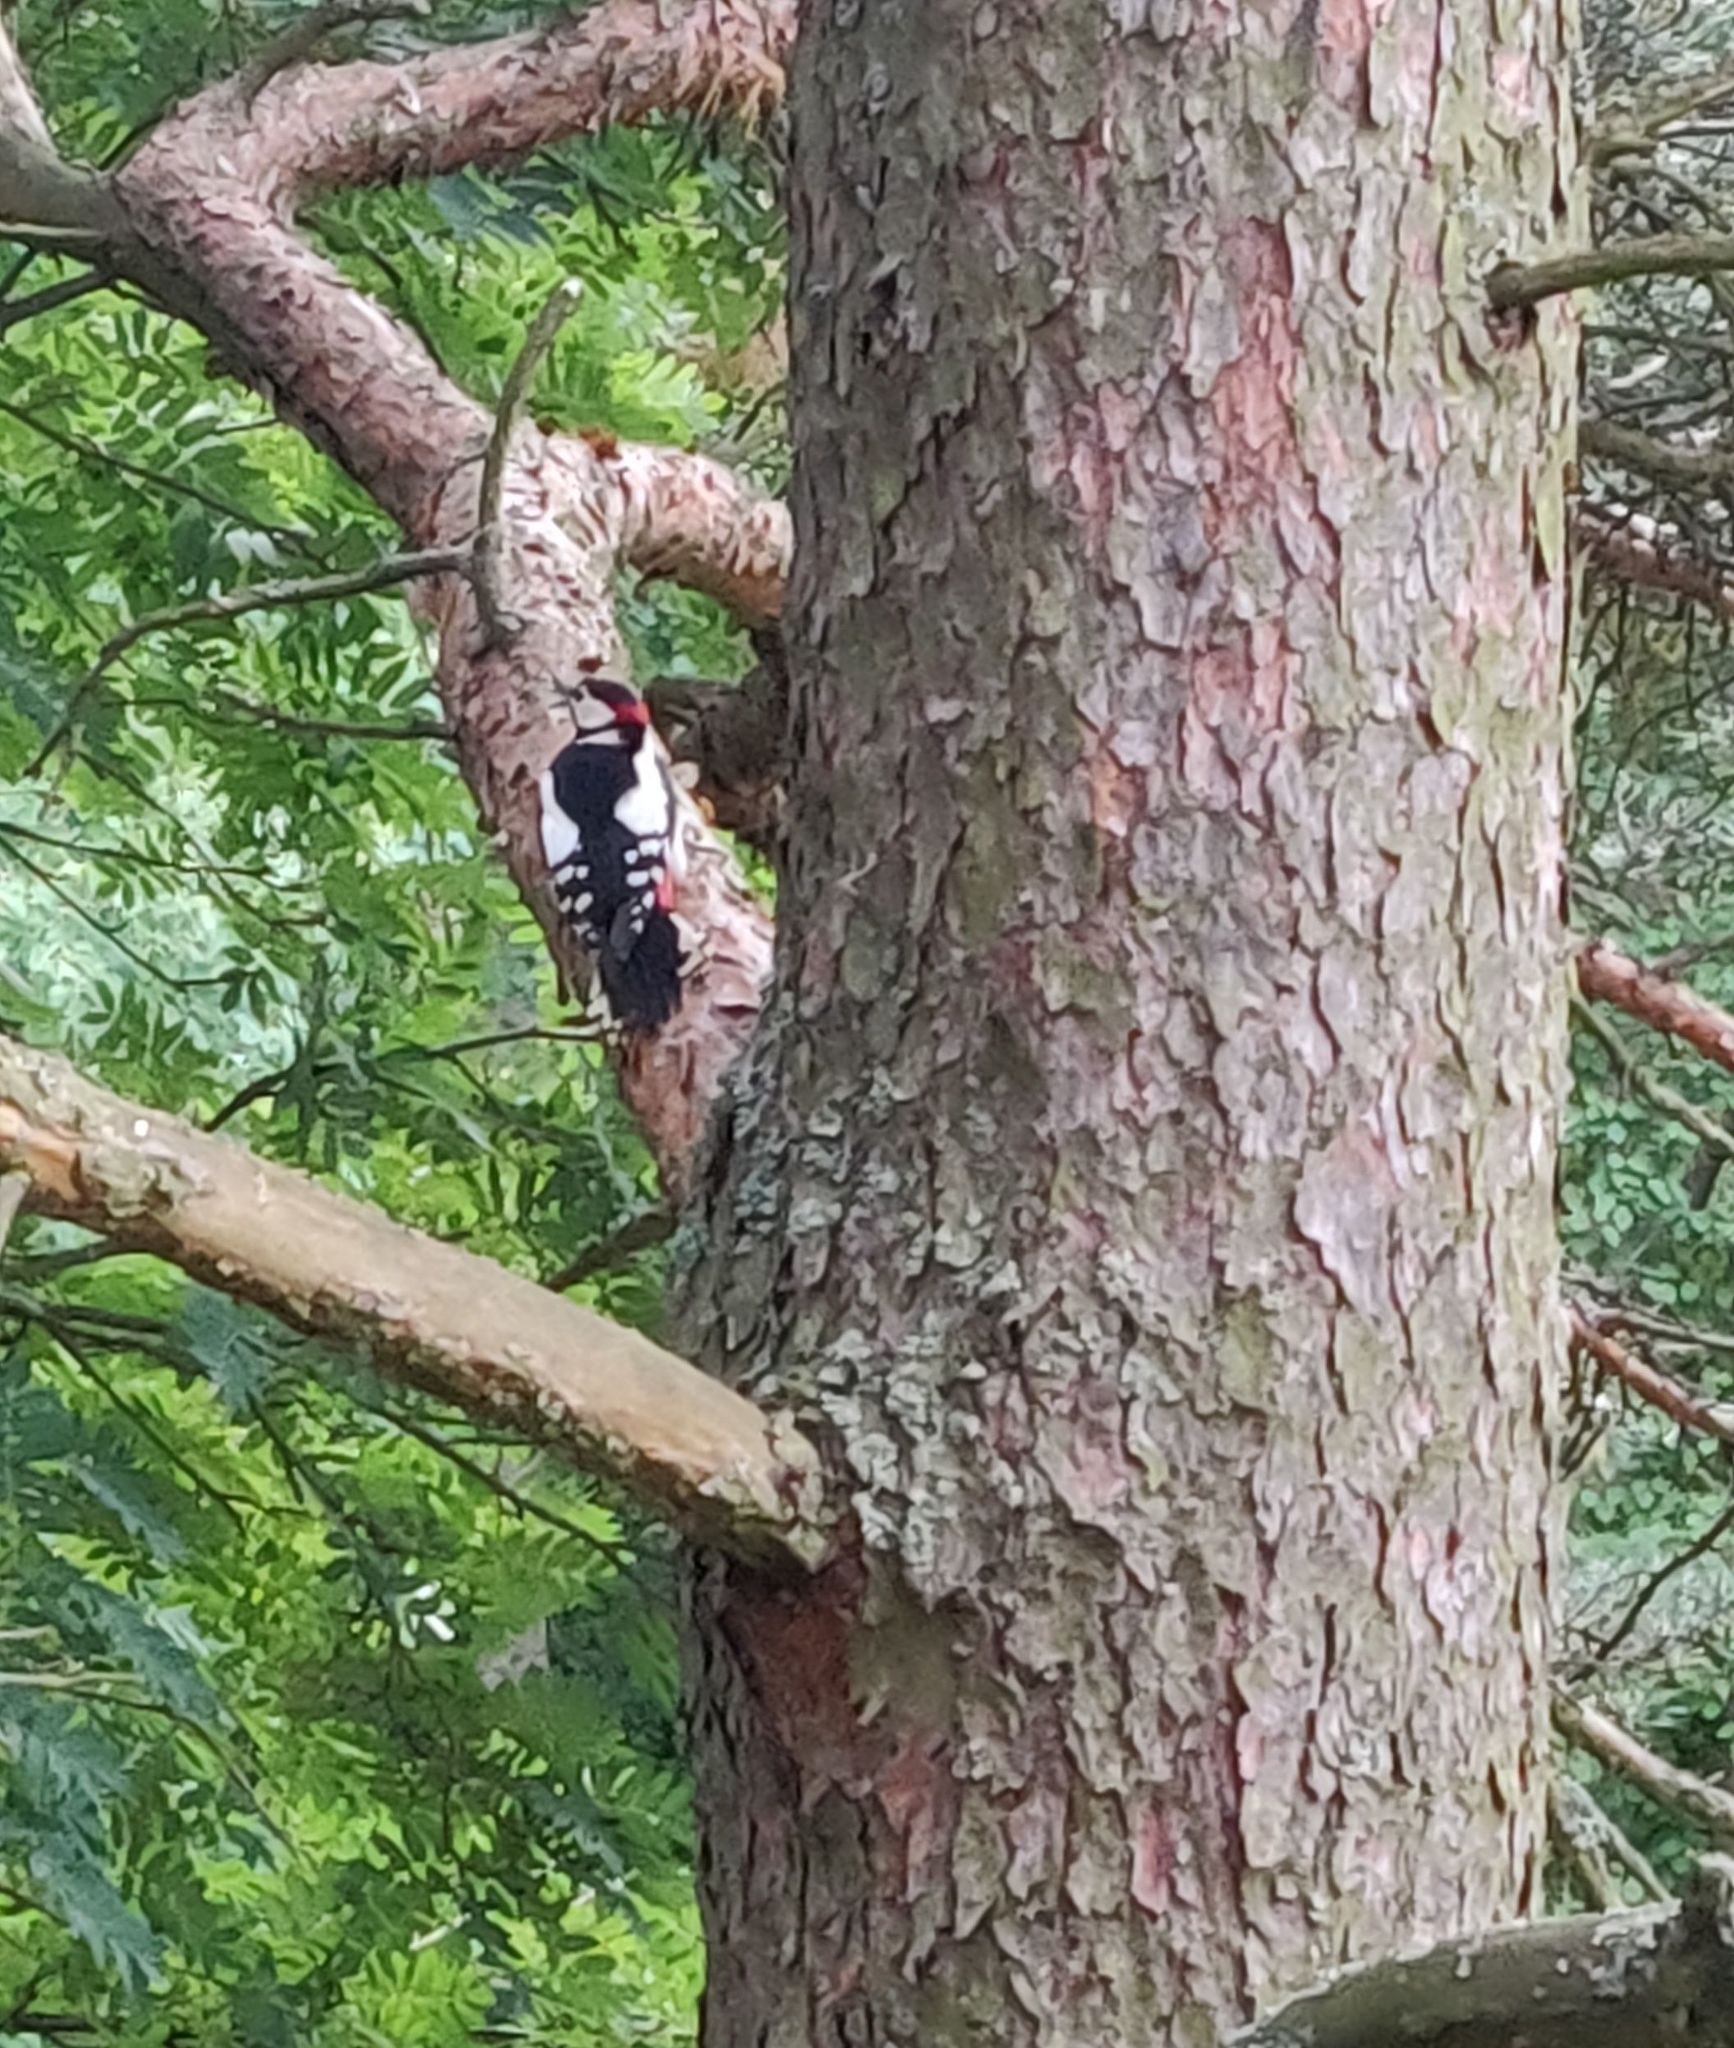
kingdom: Animalia
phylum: Chordata
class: Aves
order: Piciformes
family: Picidae
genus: Dendrocopos
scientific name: Dendrocopos major
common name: Great spotted woodpecker
